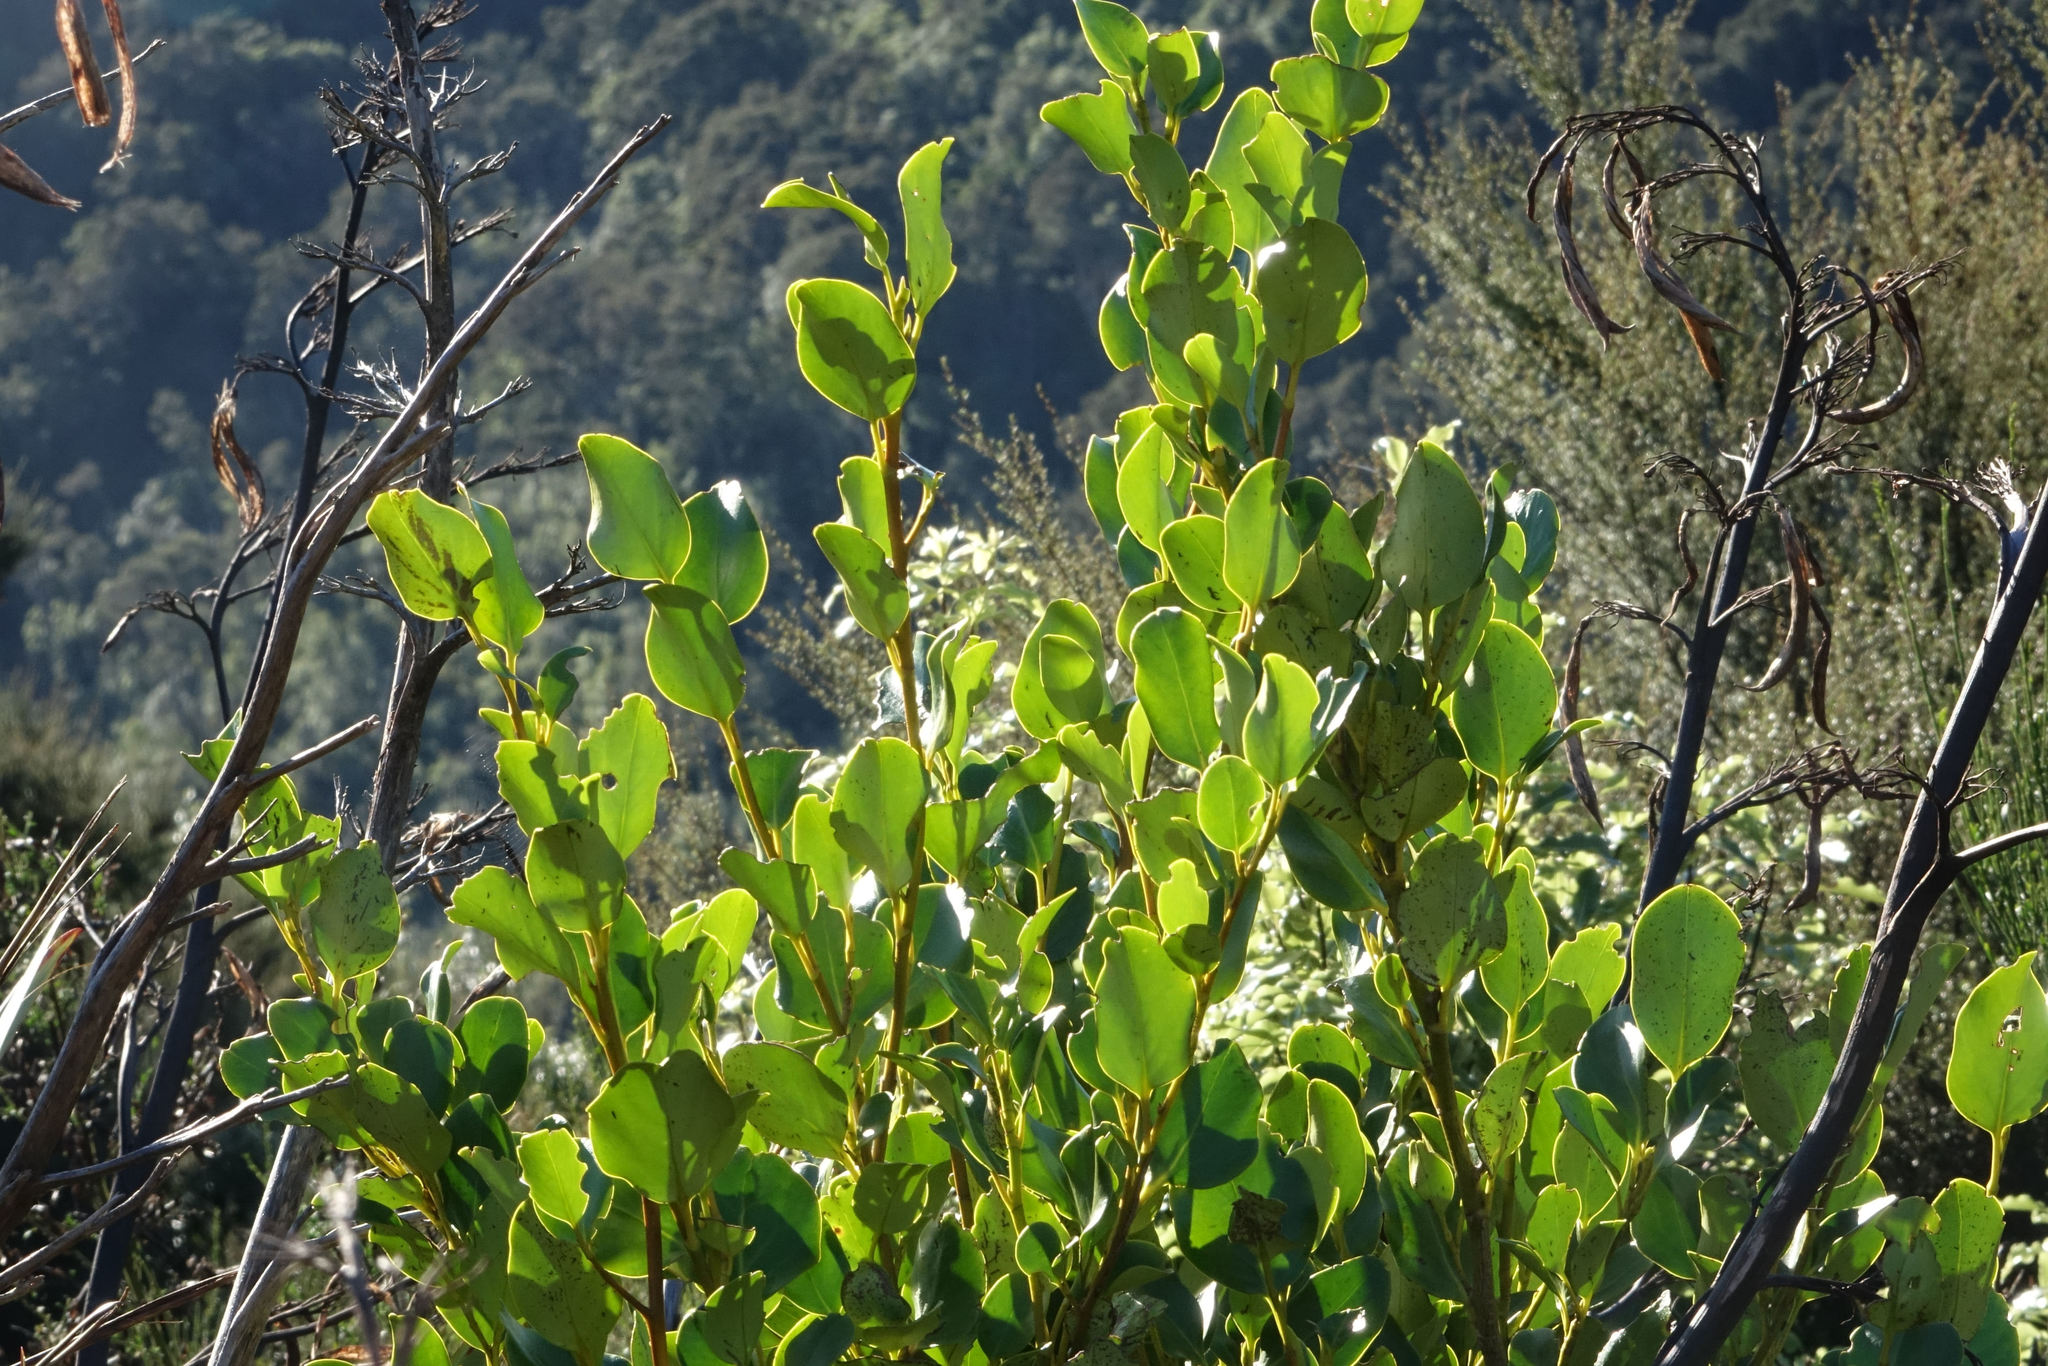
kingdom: Plantae
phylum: Tracheophyta
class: Magnoliopsida
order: Apiales
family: Griseliniaceae
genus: Griselinia
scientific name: Griselinia littoralis
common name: New zealand broadleaf
